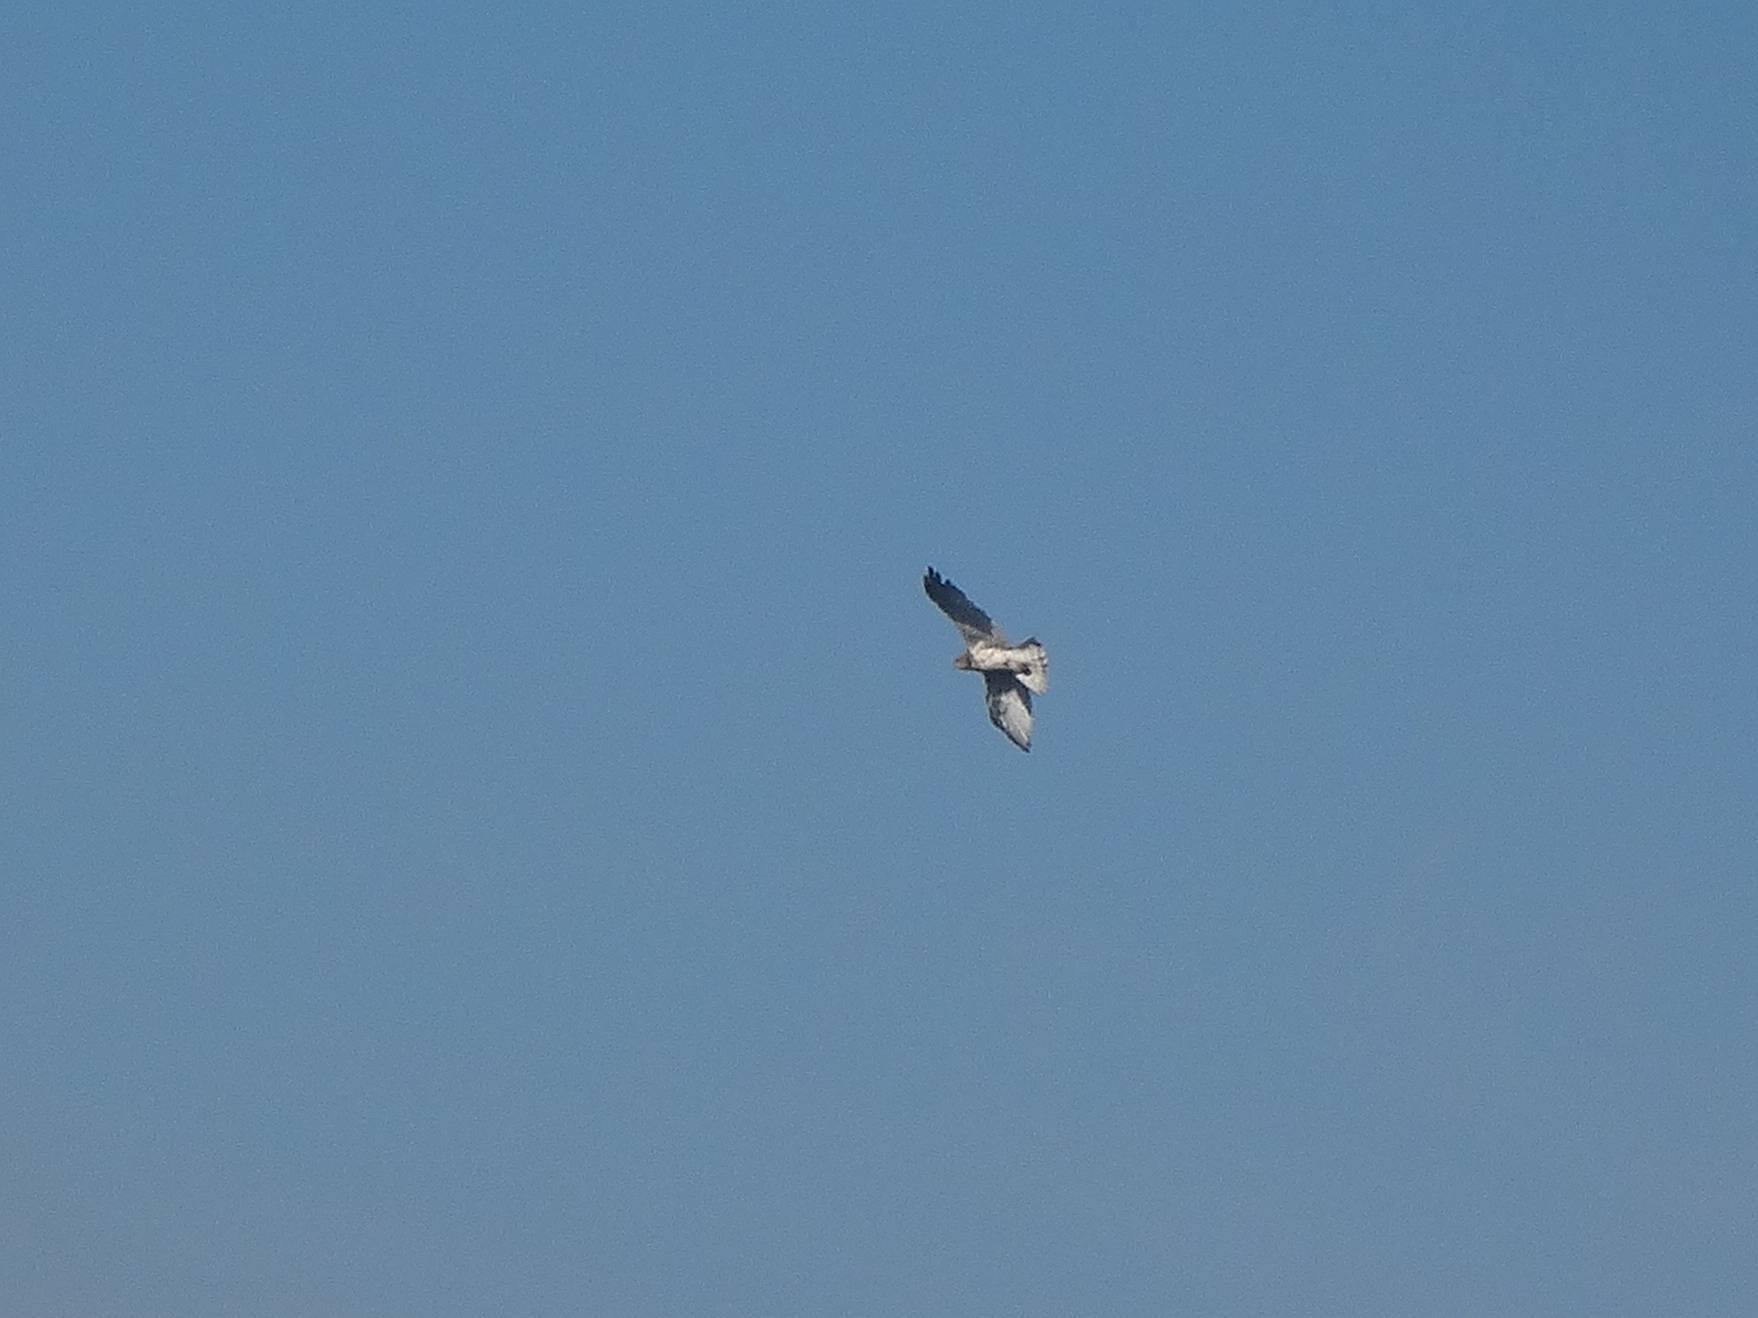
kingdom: Animalia
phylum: Chordata
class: Aves
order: Accipitriformes
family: Accipitridae
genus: Circaetus
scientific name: Circaetus gallicus
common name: Short-toed snake eagle
